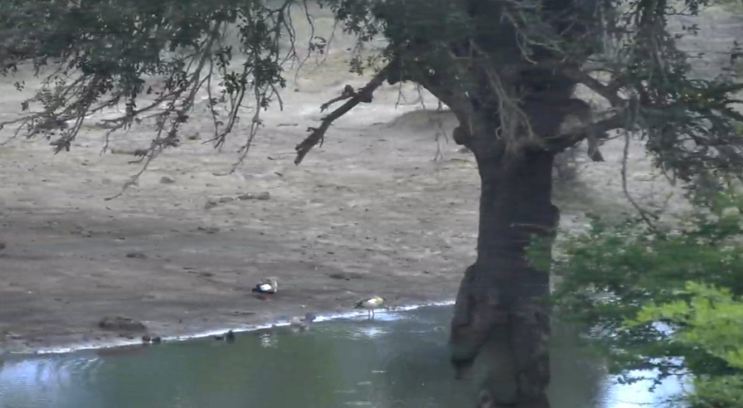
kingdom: Animalia
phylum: Chordata
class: Aves
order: Anseriformes
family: Anatidae
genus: Alopochen
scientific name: Alopochen aegyptiaca
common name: Egyptian goose
